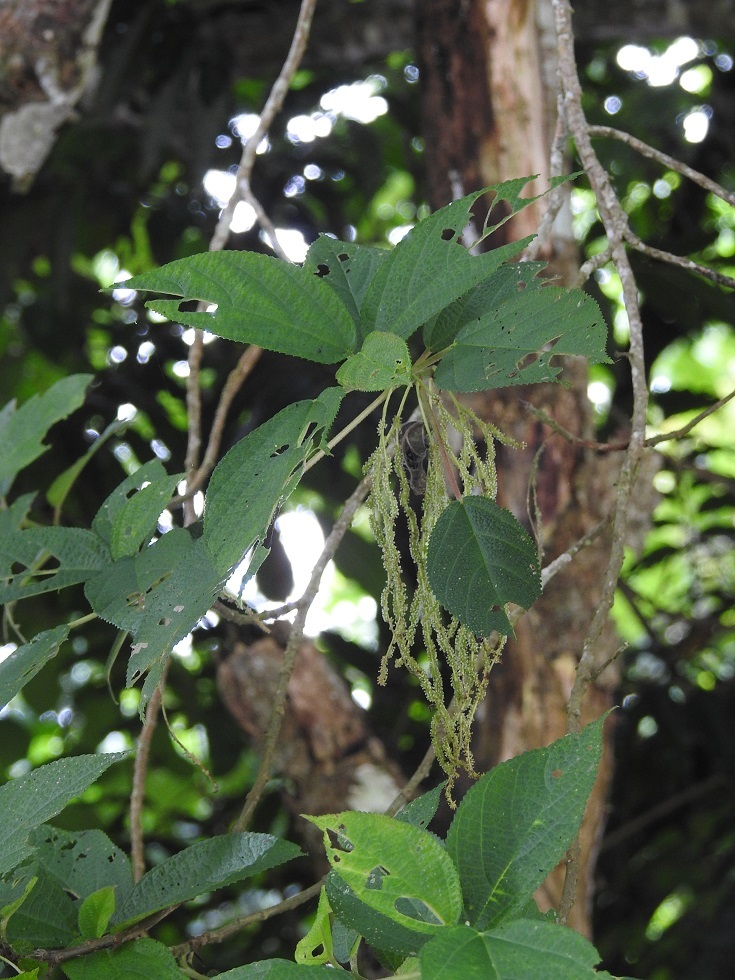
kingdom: Plantae
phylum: Tracheophyta
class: Magnoliopsida
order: Rosales
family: Urticaceae
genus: Myriocarpa
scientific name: Myriocarpa longipes
